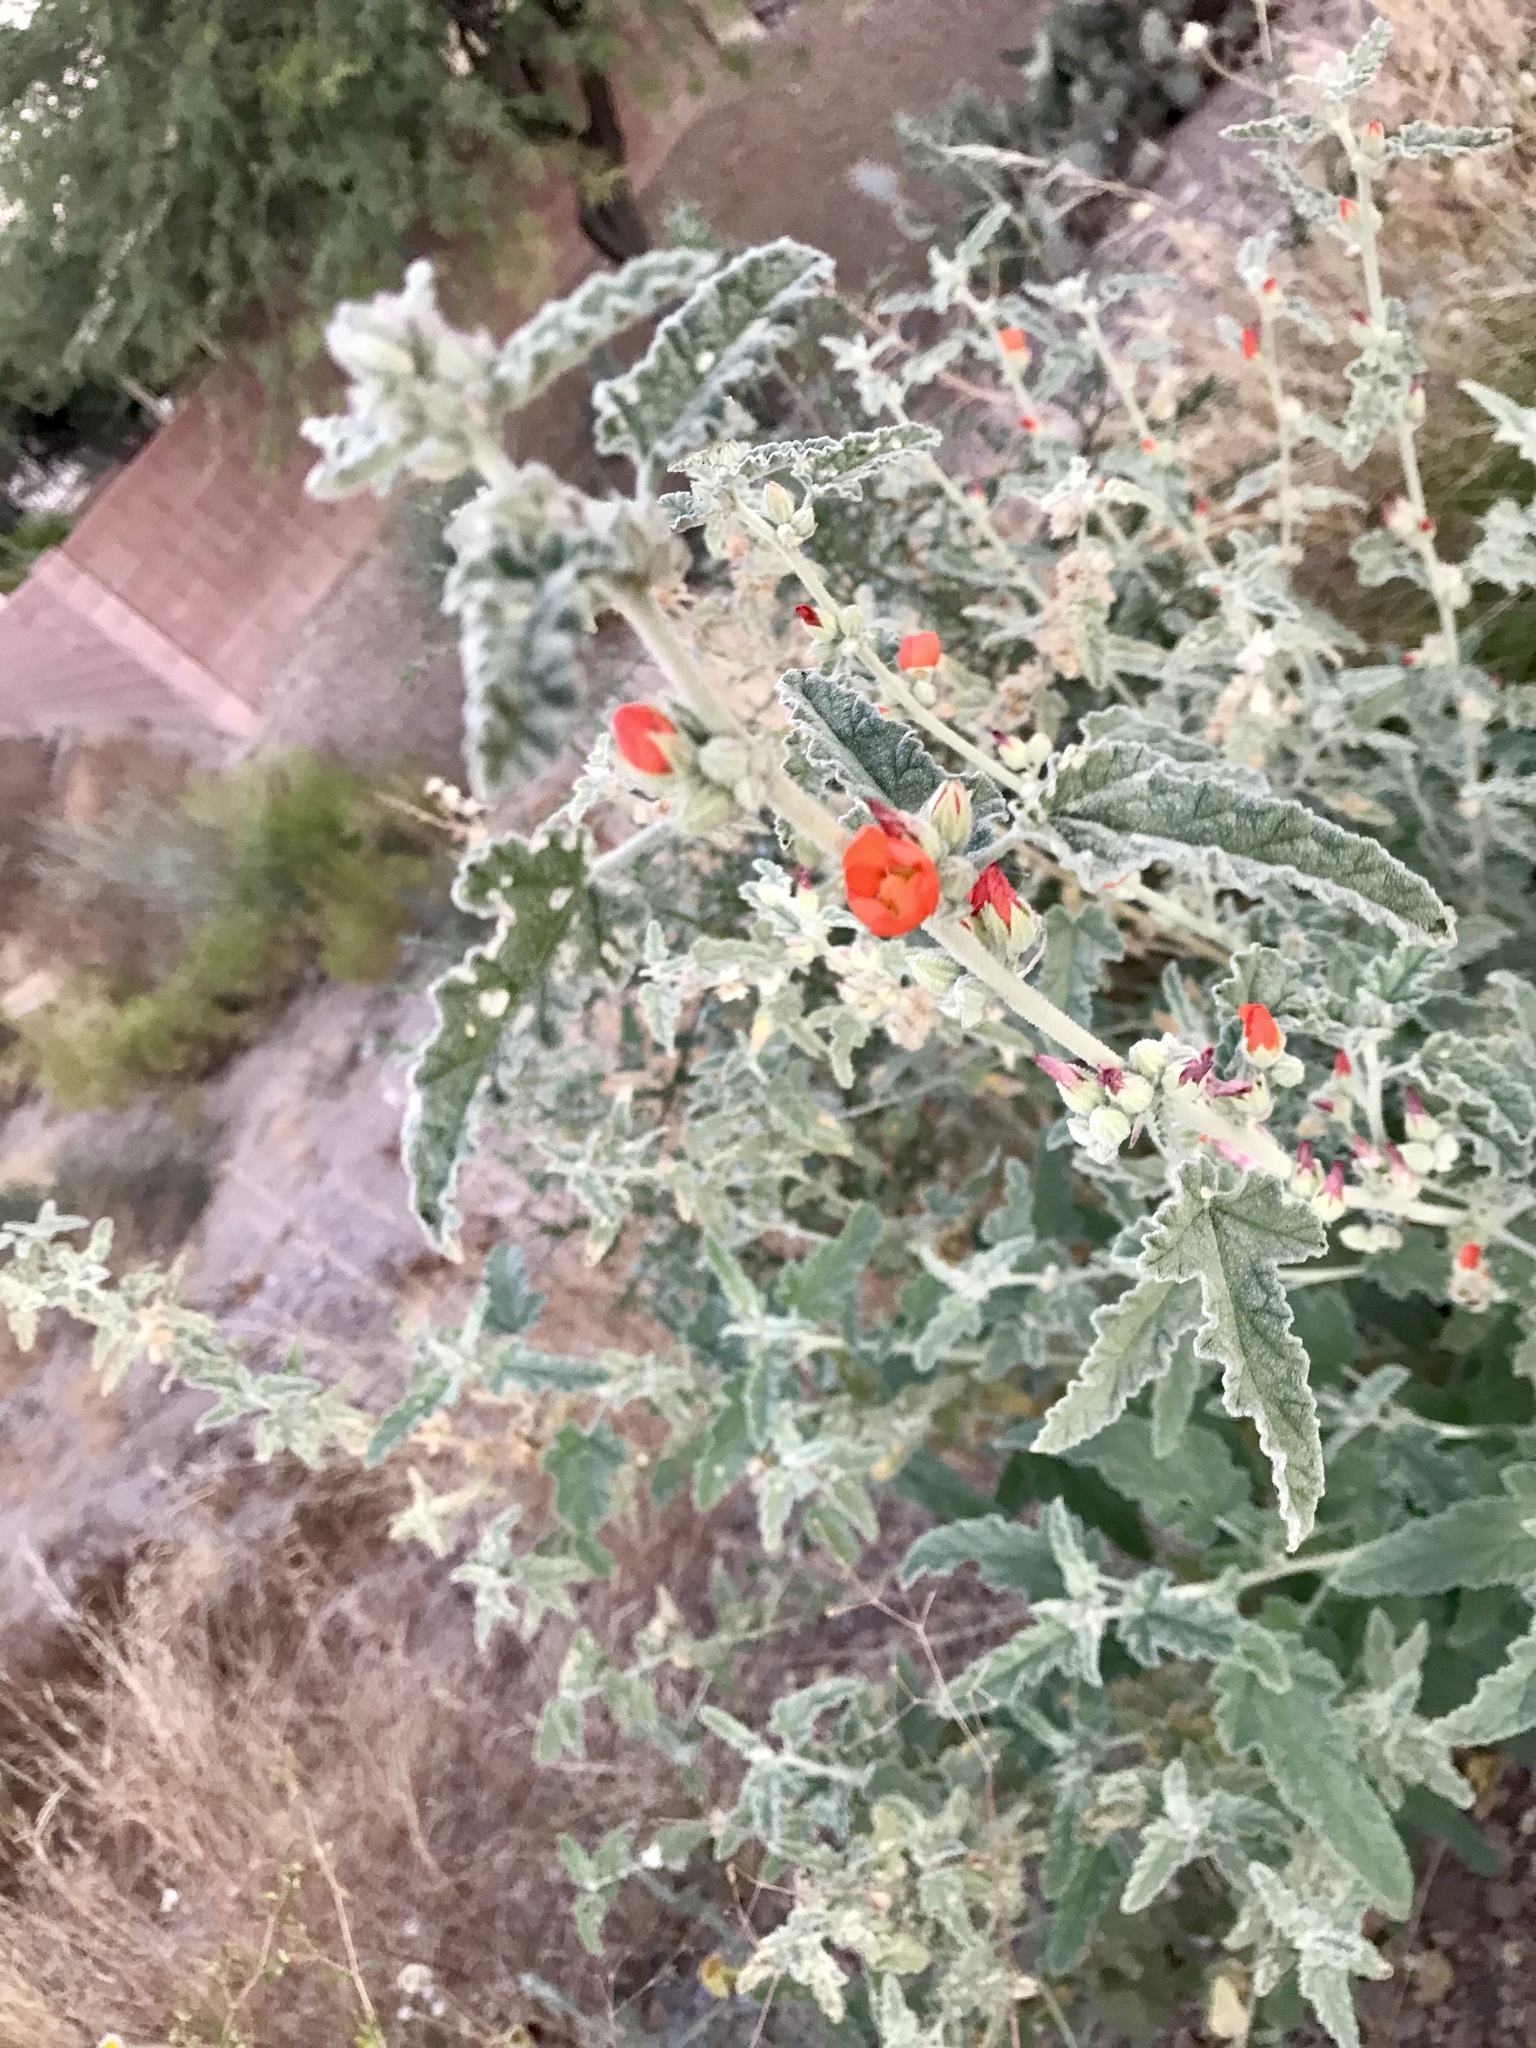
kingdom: Plantae
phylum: Tracheophyta
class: Magnoliopsida
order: Malvales
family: Malvaceae
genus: Sphaeralcea
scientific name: Sphaeralcea hastulata
